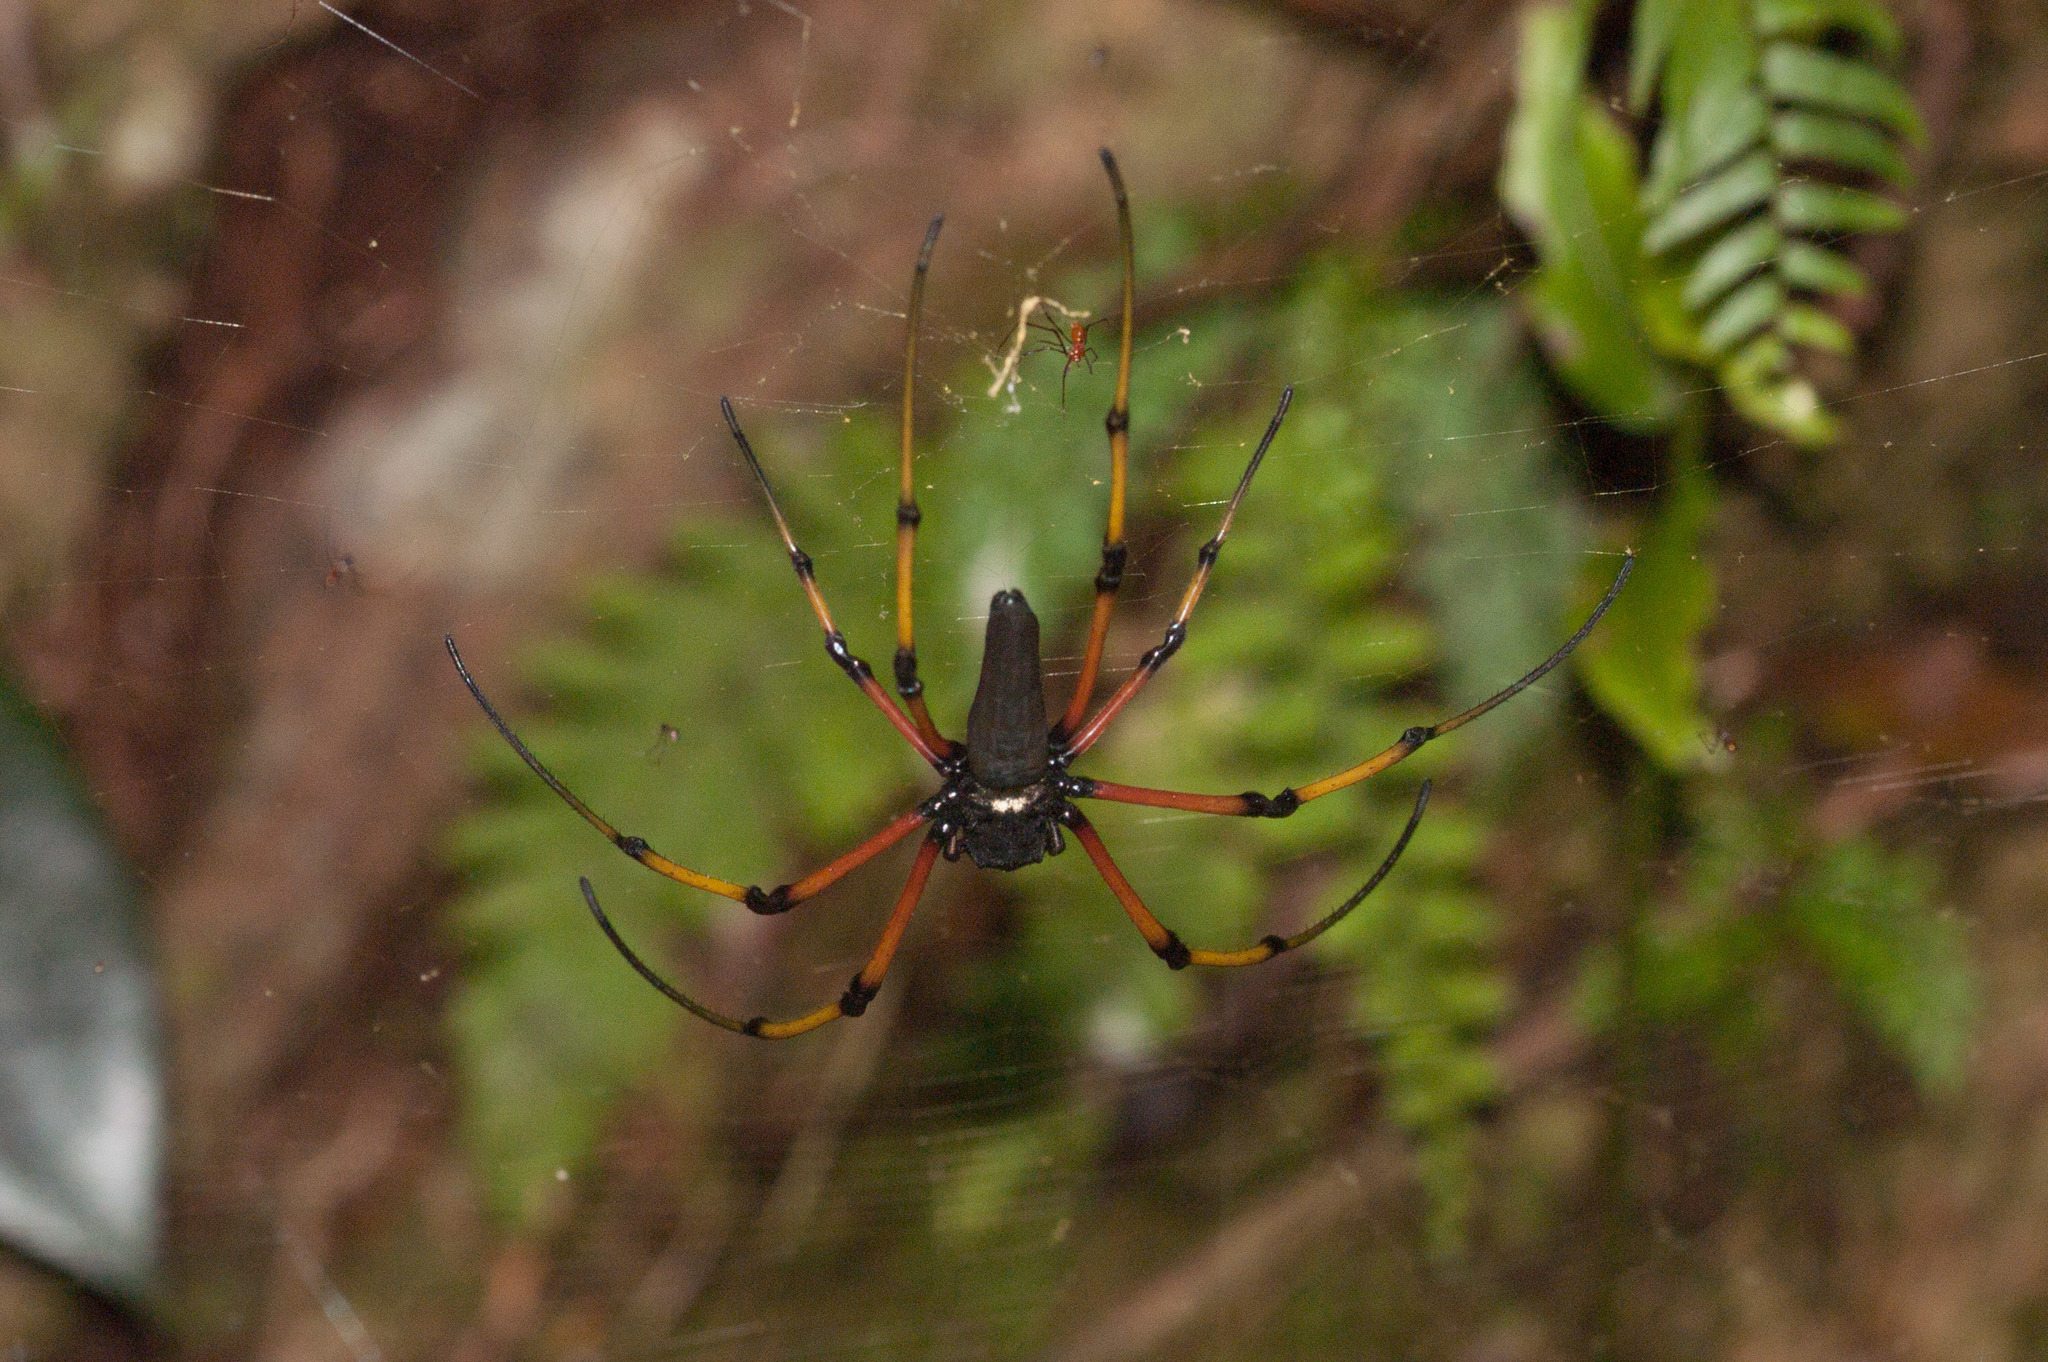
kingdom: Animalia
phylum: Arthropoda
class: Arachnida
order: Araneae
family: Araneidae
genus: Nephila
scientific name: Nephila pilipes
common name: Giant golden orb weaver
